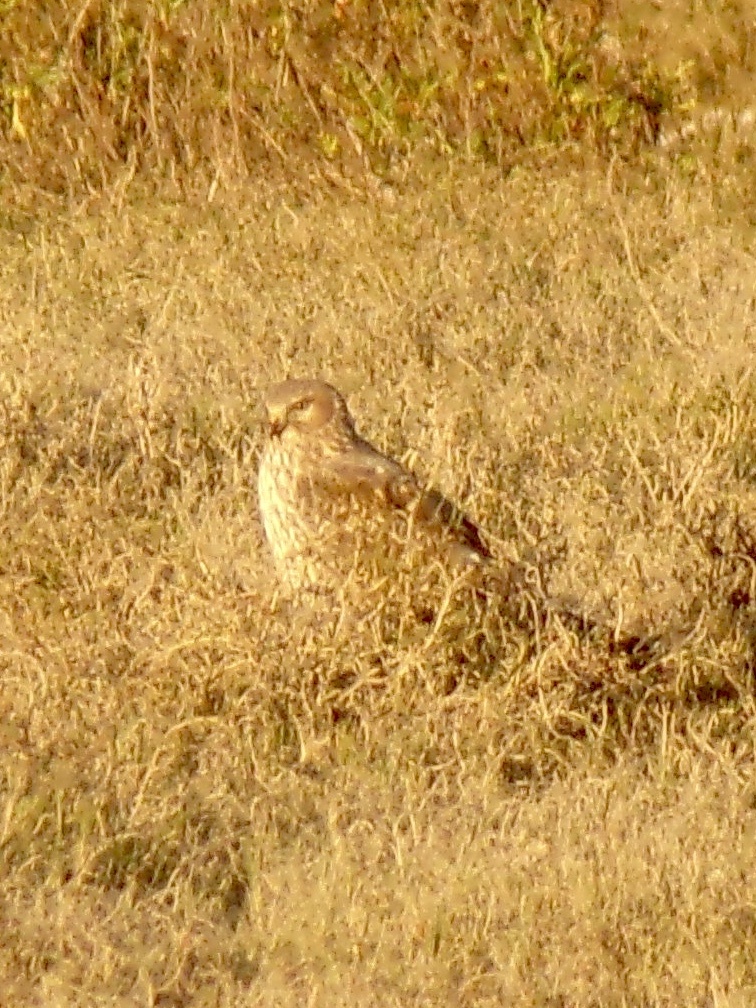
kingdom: Animalia
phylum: Chordata
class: Aves
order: Accipitriformes
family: Accipitridae
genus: Circus
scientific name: Circus cyaneus
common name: Hen harrier
